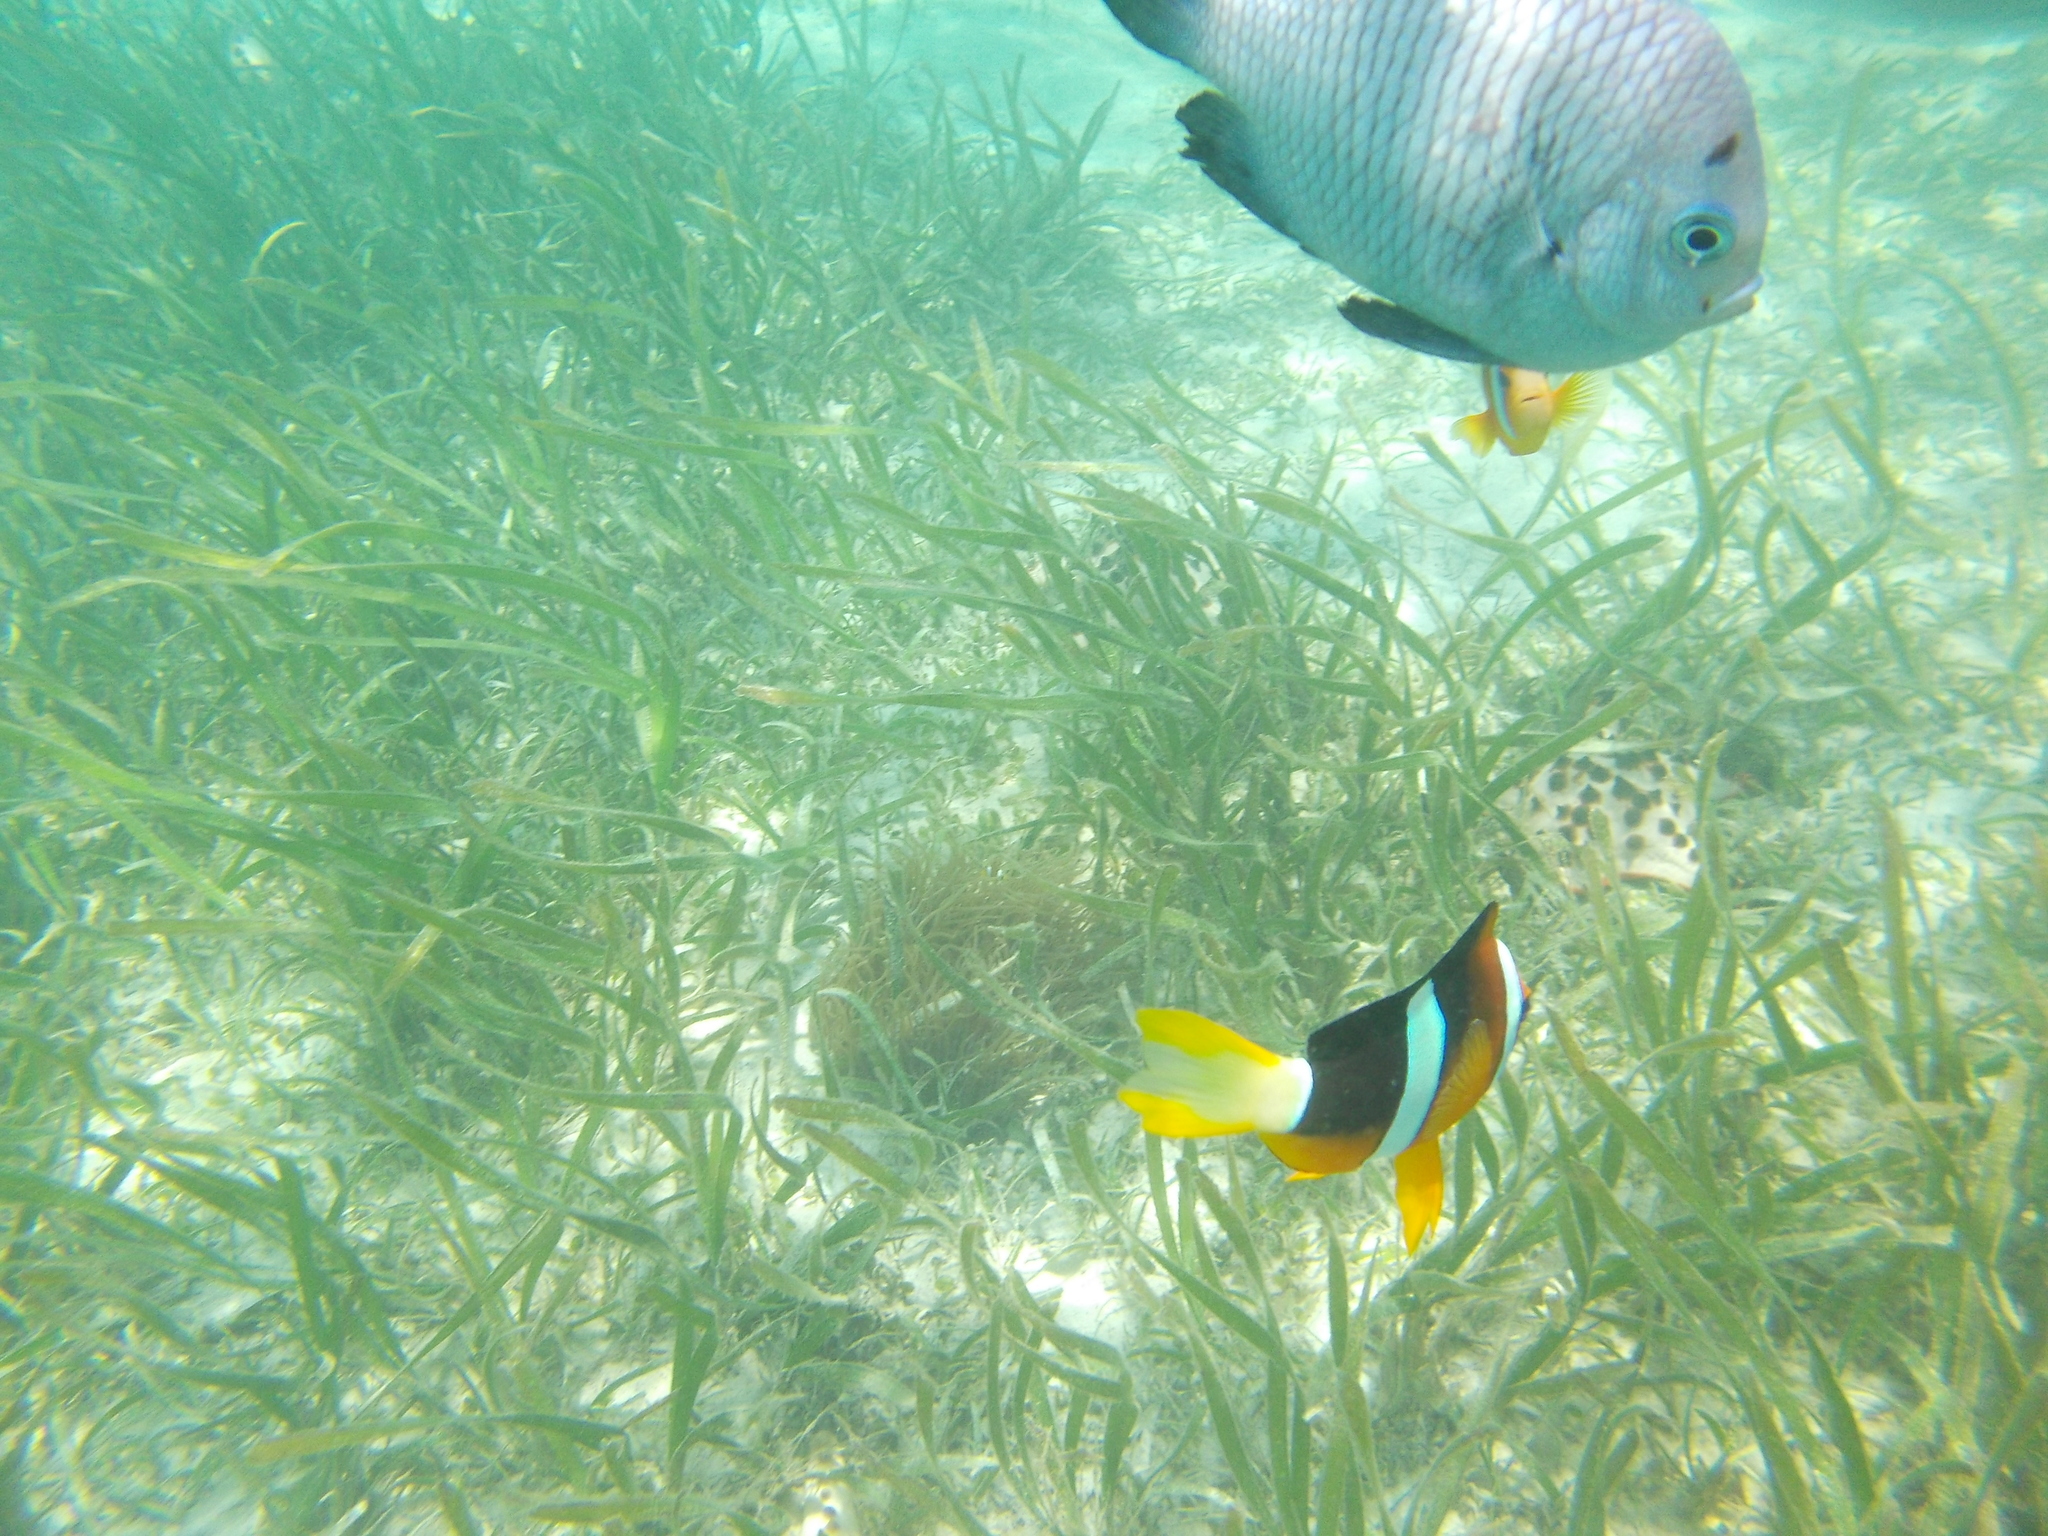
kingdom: Animalia
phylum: Chordata
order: Perciformes
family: Pomacentridae
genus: Dascyllus
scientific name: Dascyllus trimaculatus
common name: Threespot dascyllus
